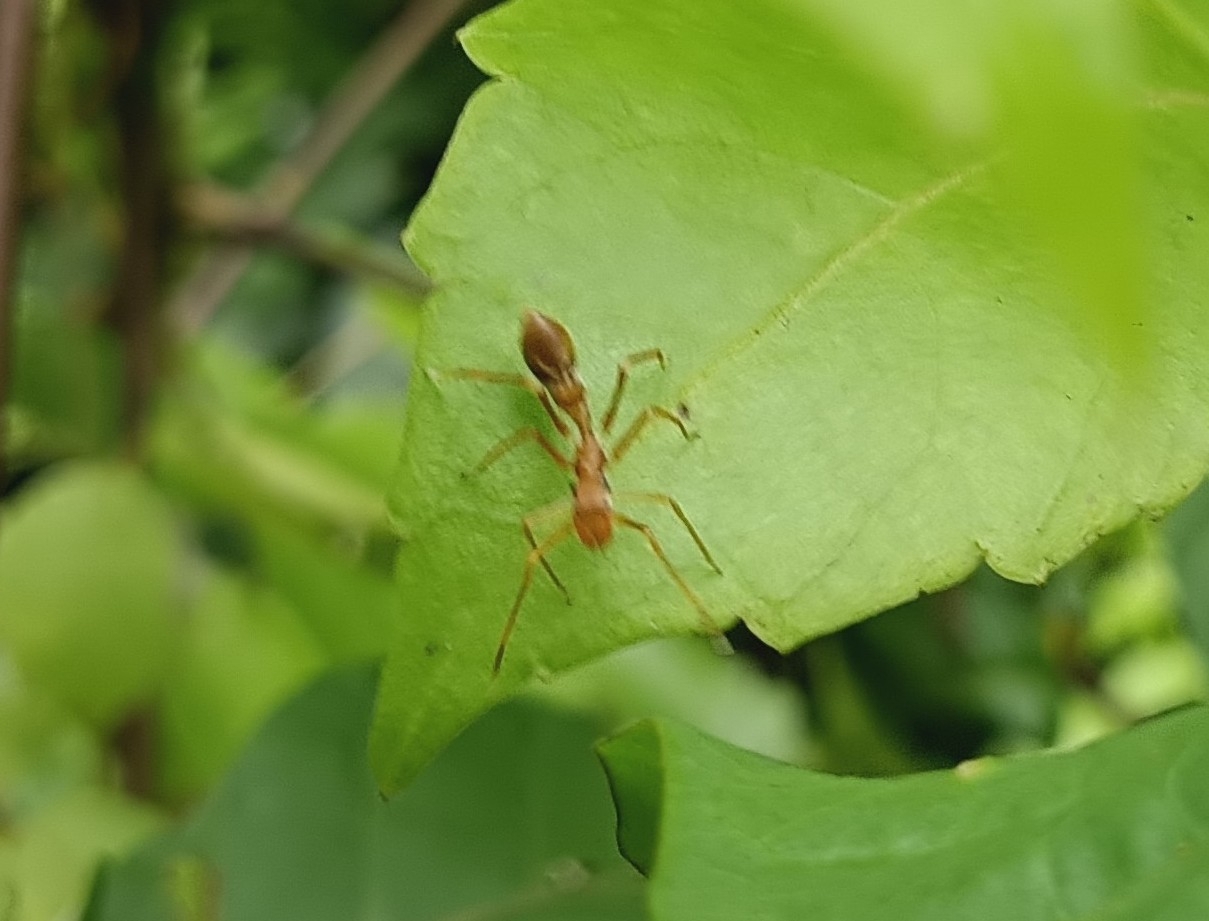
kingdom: Animalia
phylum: Arthropoda
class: Arachnida
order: Araneae
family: Salticidae
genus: Myrmaplata
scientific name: Myrmaplata plataleoides
